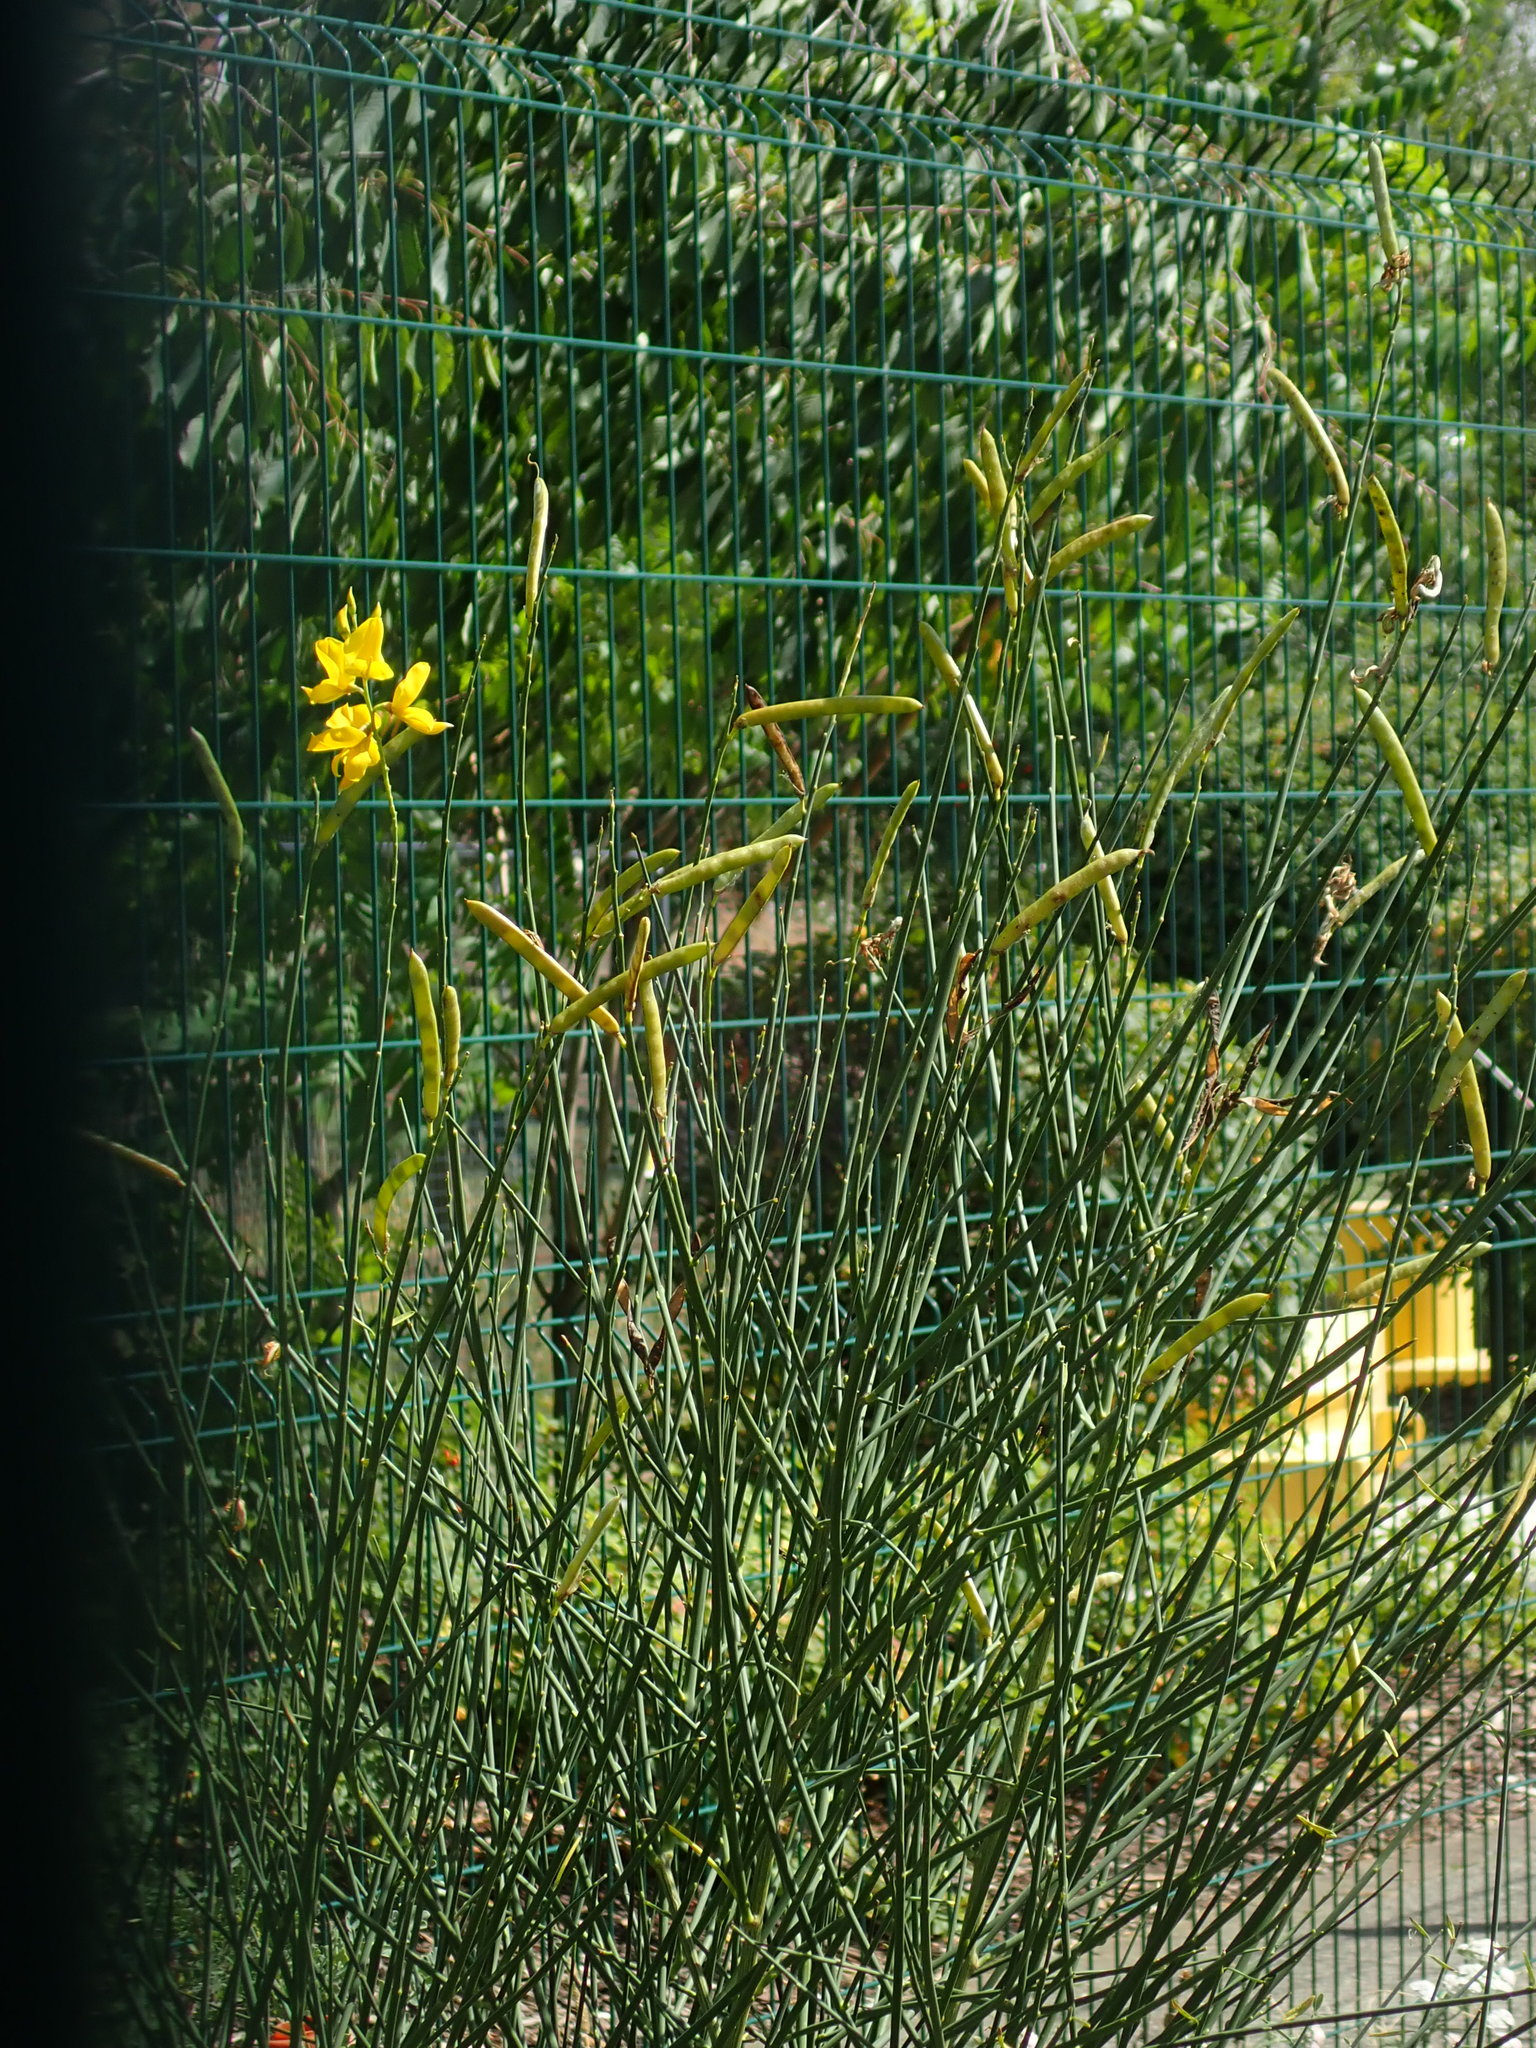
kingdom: Plantae
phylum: Tracheophyta
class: Magnoliopsida
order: Fabales
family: Fabaceae
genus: Spartium
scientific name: Spartium junceum
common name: Spanish broom
